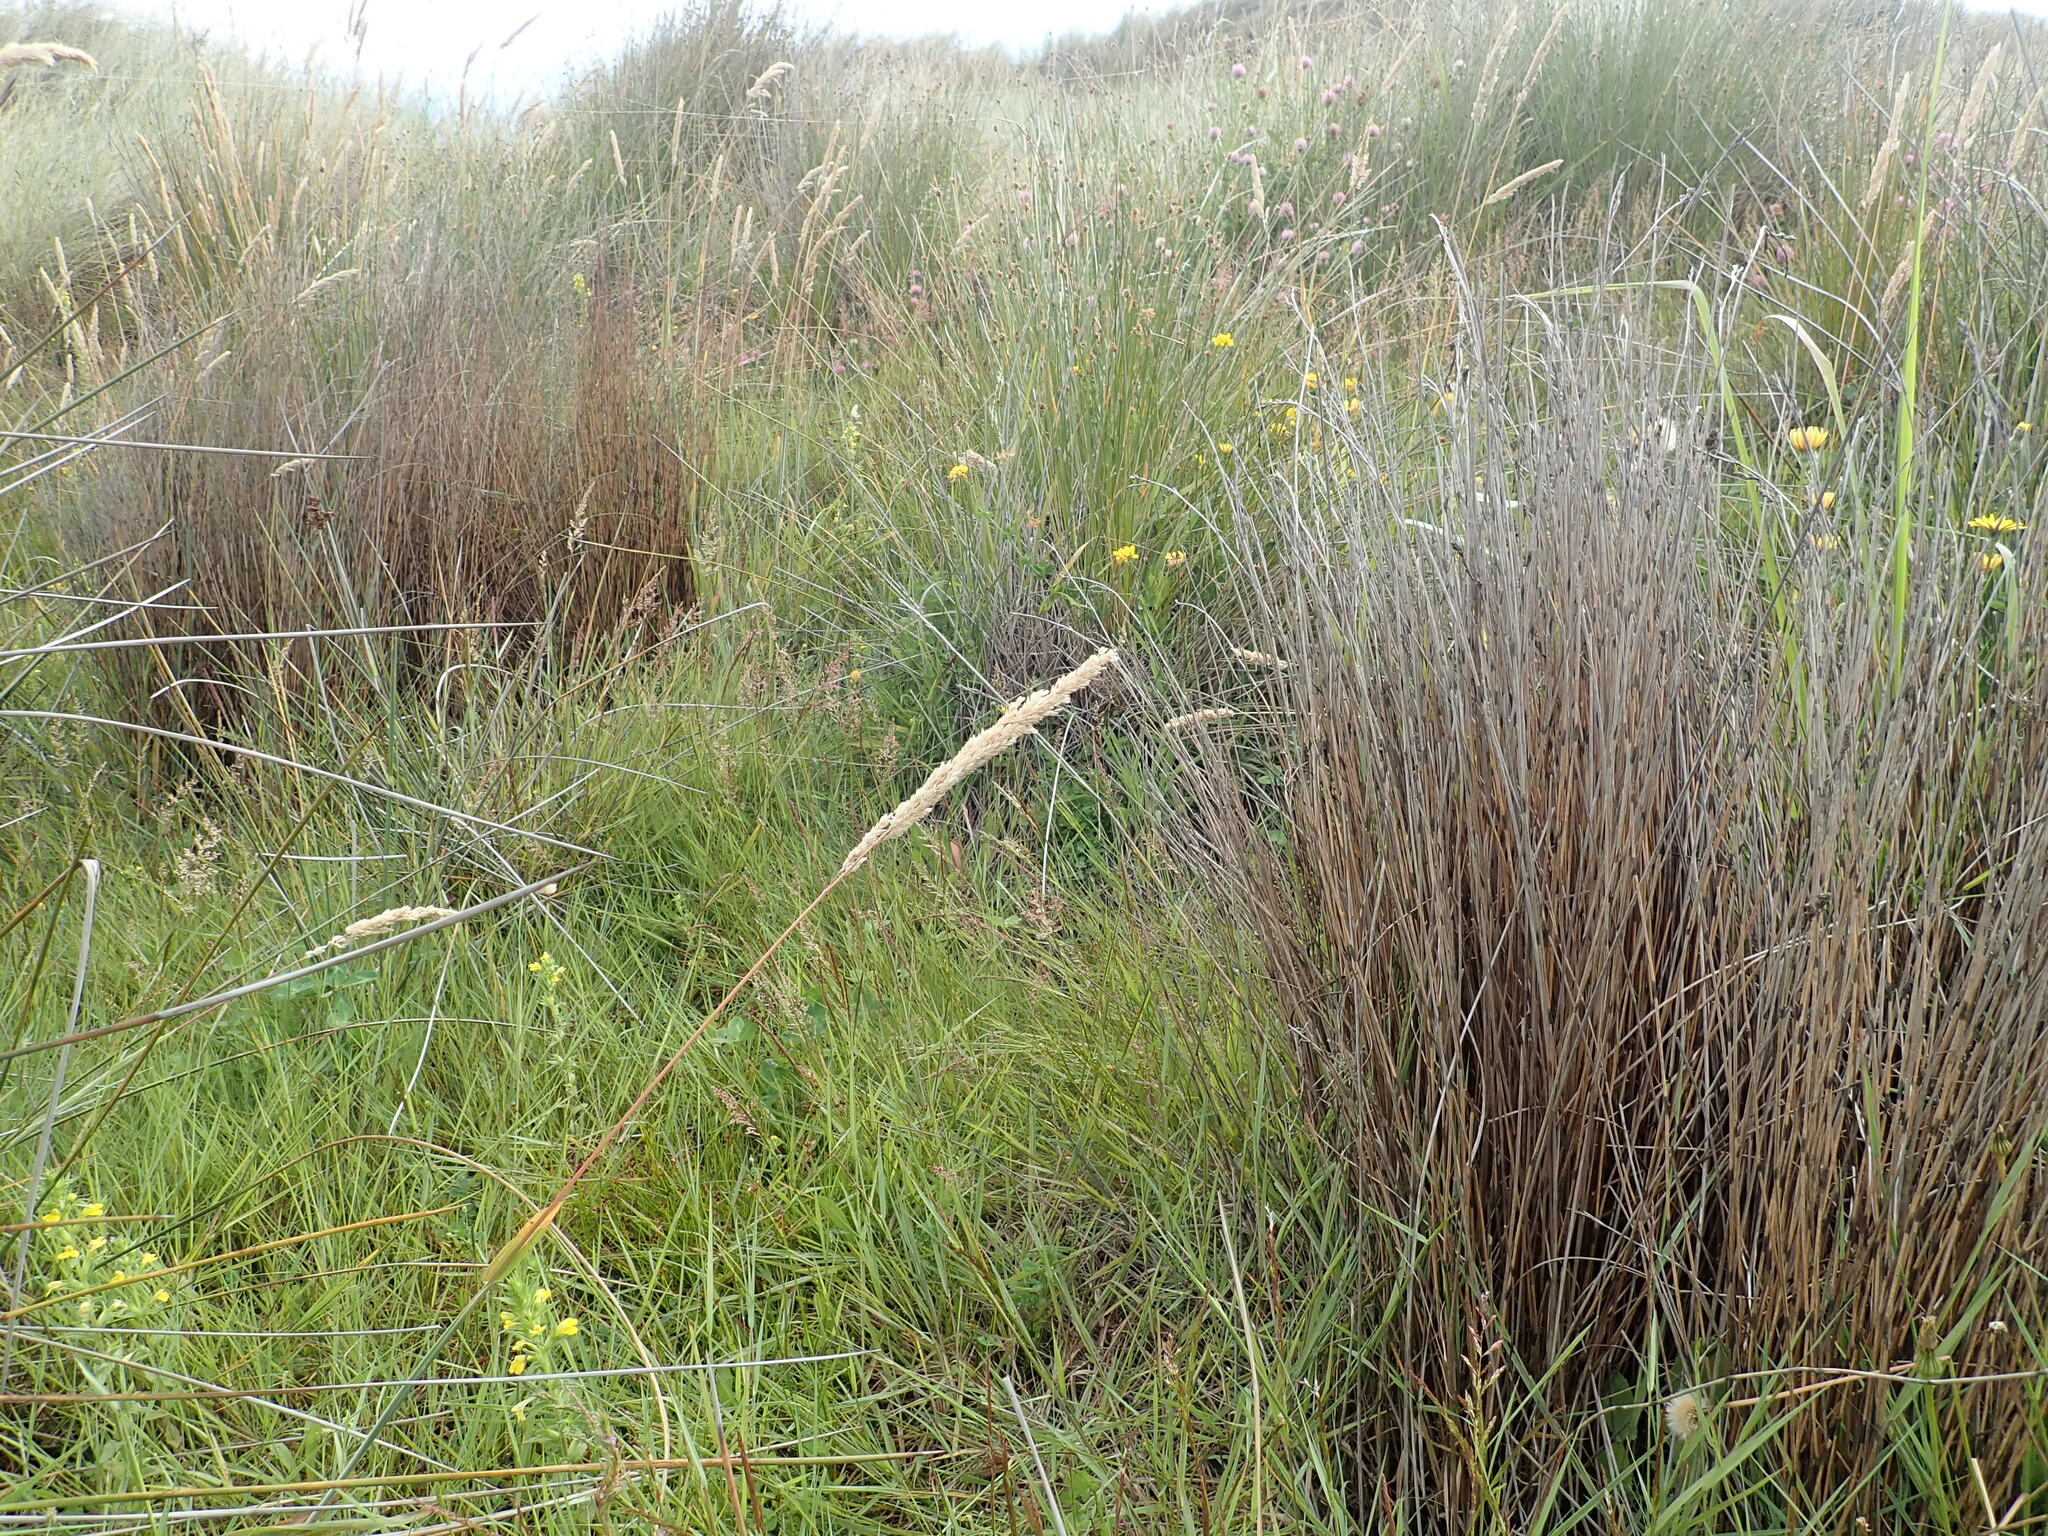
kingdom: Plantae
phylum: Tracheophyta
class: Liliopsida
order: Poales
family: Restionaceae
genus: Apodasmia
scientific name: Apodasmia similis
